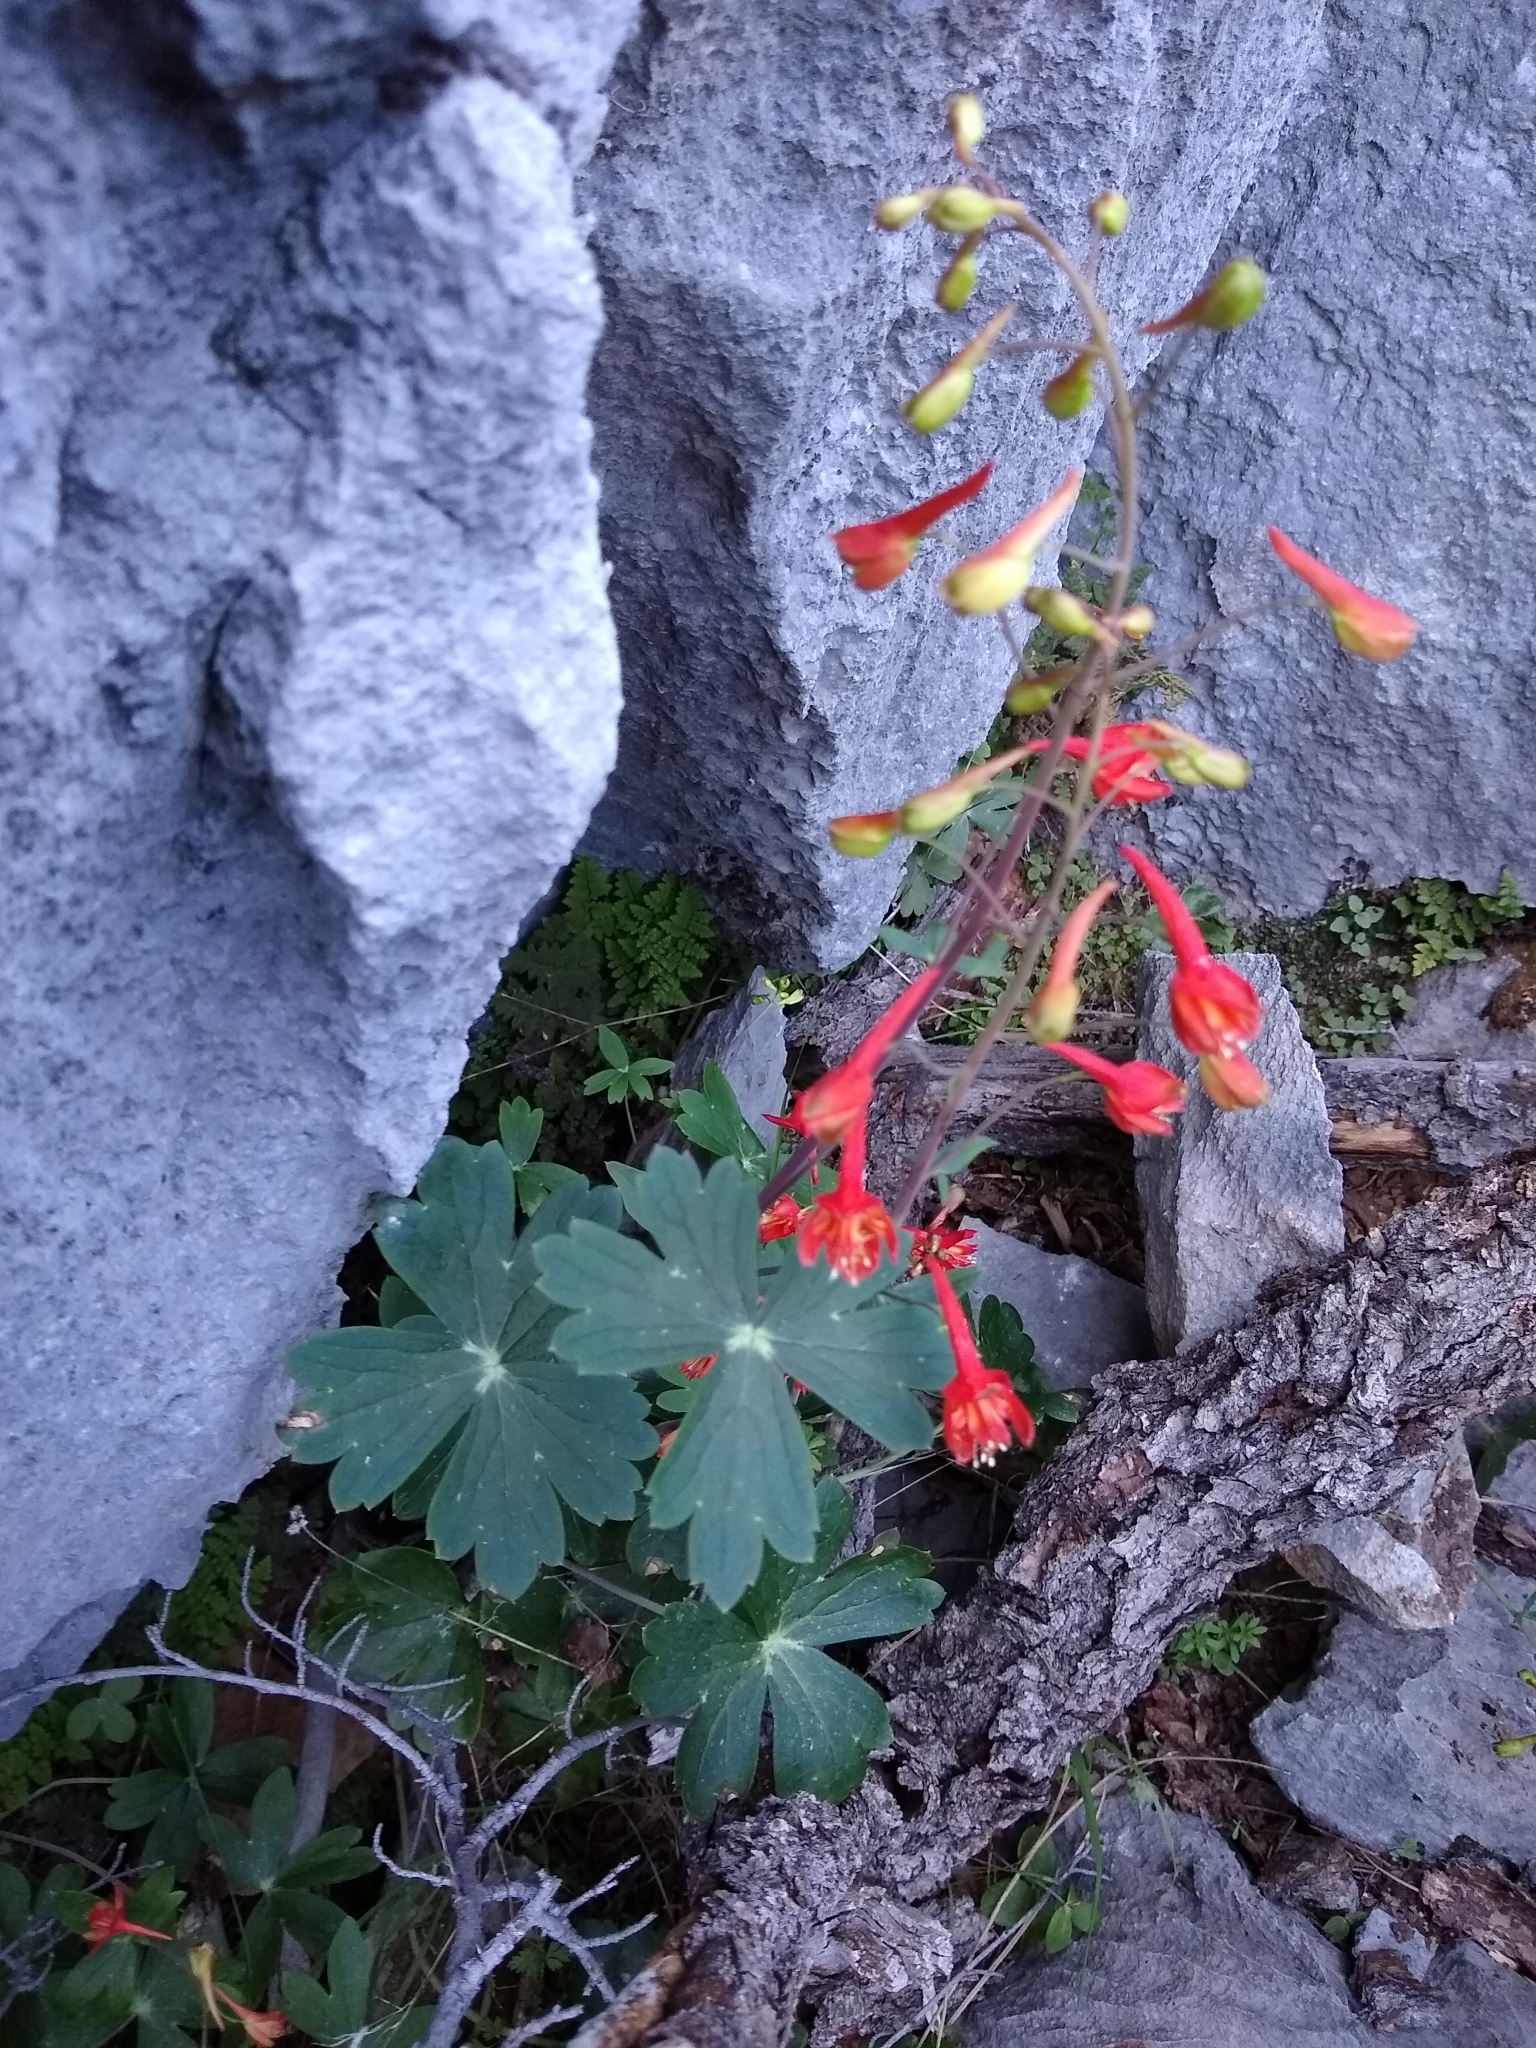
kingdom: Plantae
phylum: Tracheophyta
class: Magnoliopsida
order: Ranunculales
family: Ranunculaceae
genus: Delphinium
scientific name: Delphinium nudicaule
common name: Red larkspur
